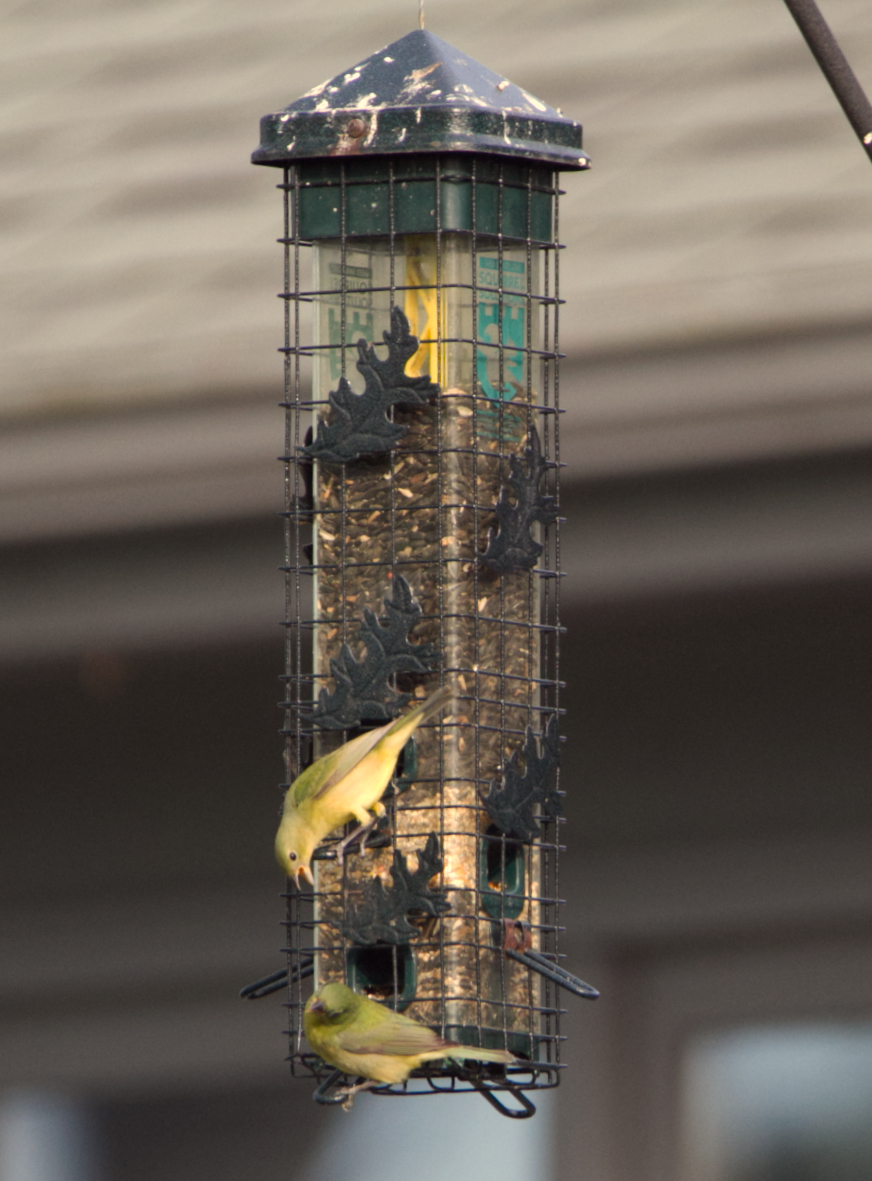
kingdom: Animalia
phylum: Chordata
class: Aves
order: Passeriformes
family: Cardinalidae
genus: Passerina
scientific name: Passerina ciris
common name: Painted bunting
